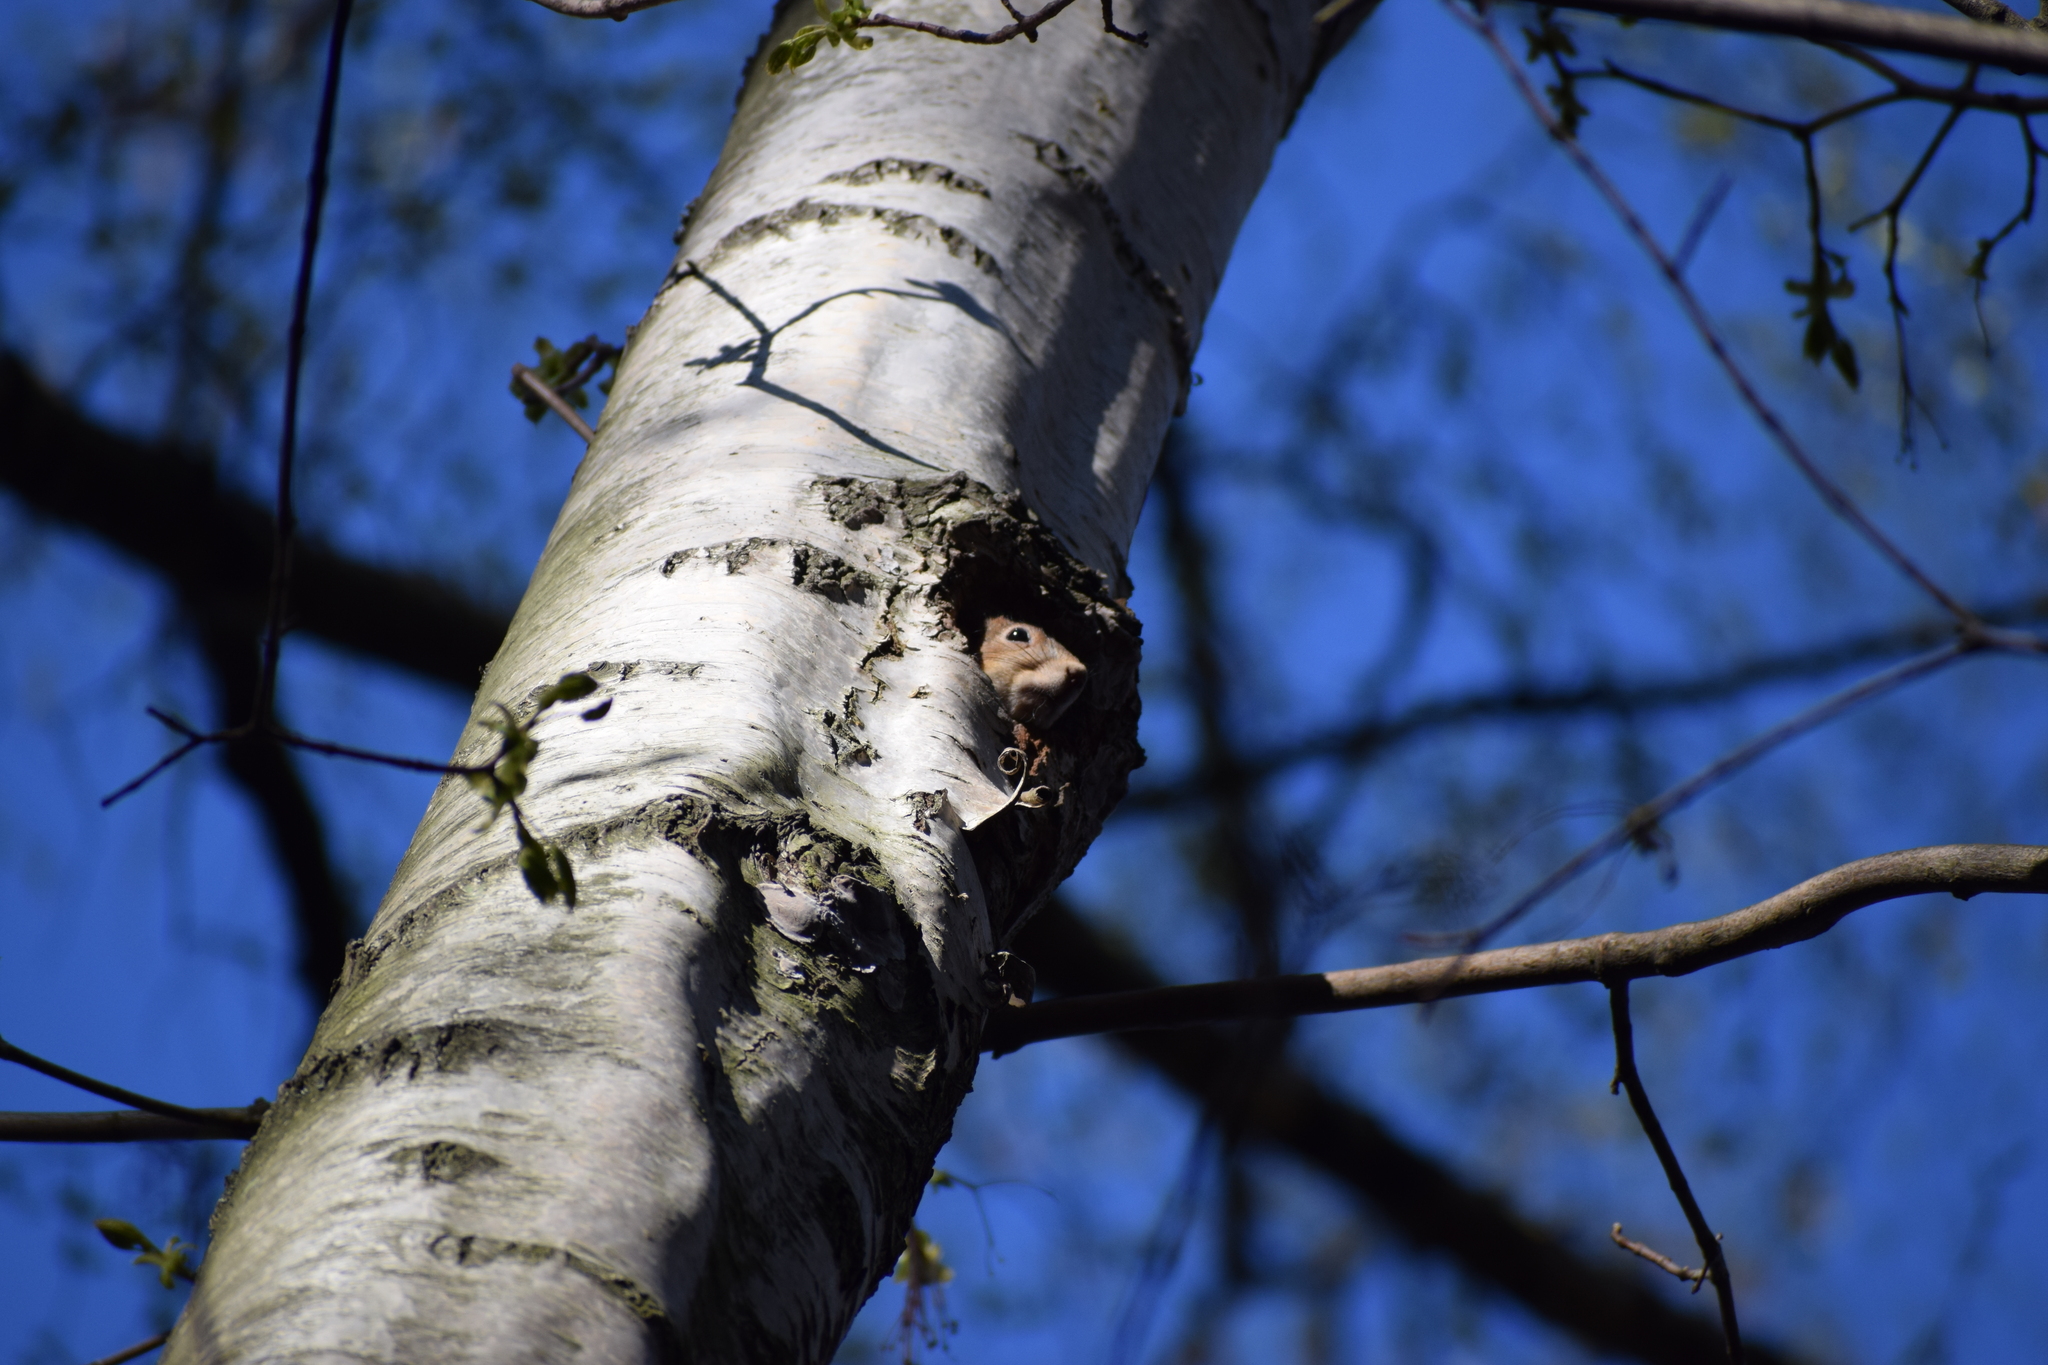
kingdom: Animalia
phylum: Chordata
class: Mammalia
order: Rodentia
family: Sciuridae
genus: Sciurus
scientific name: Sciurus vulgaris
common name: Eurasian red squirrel
